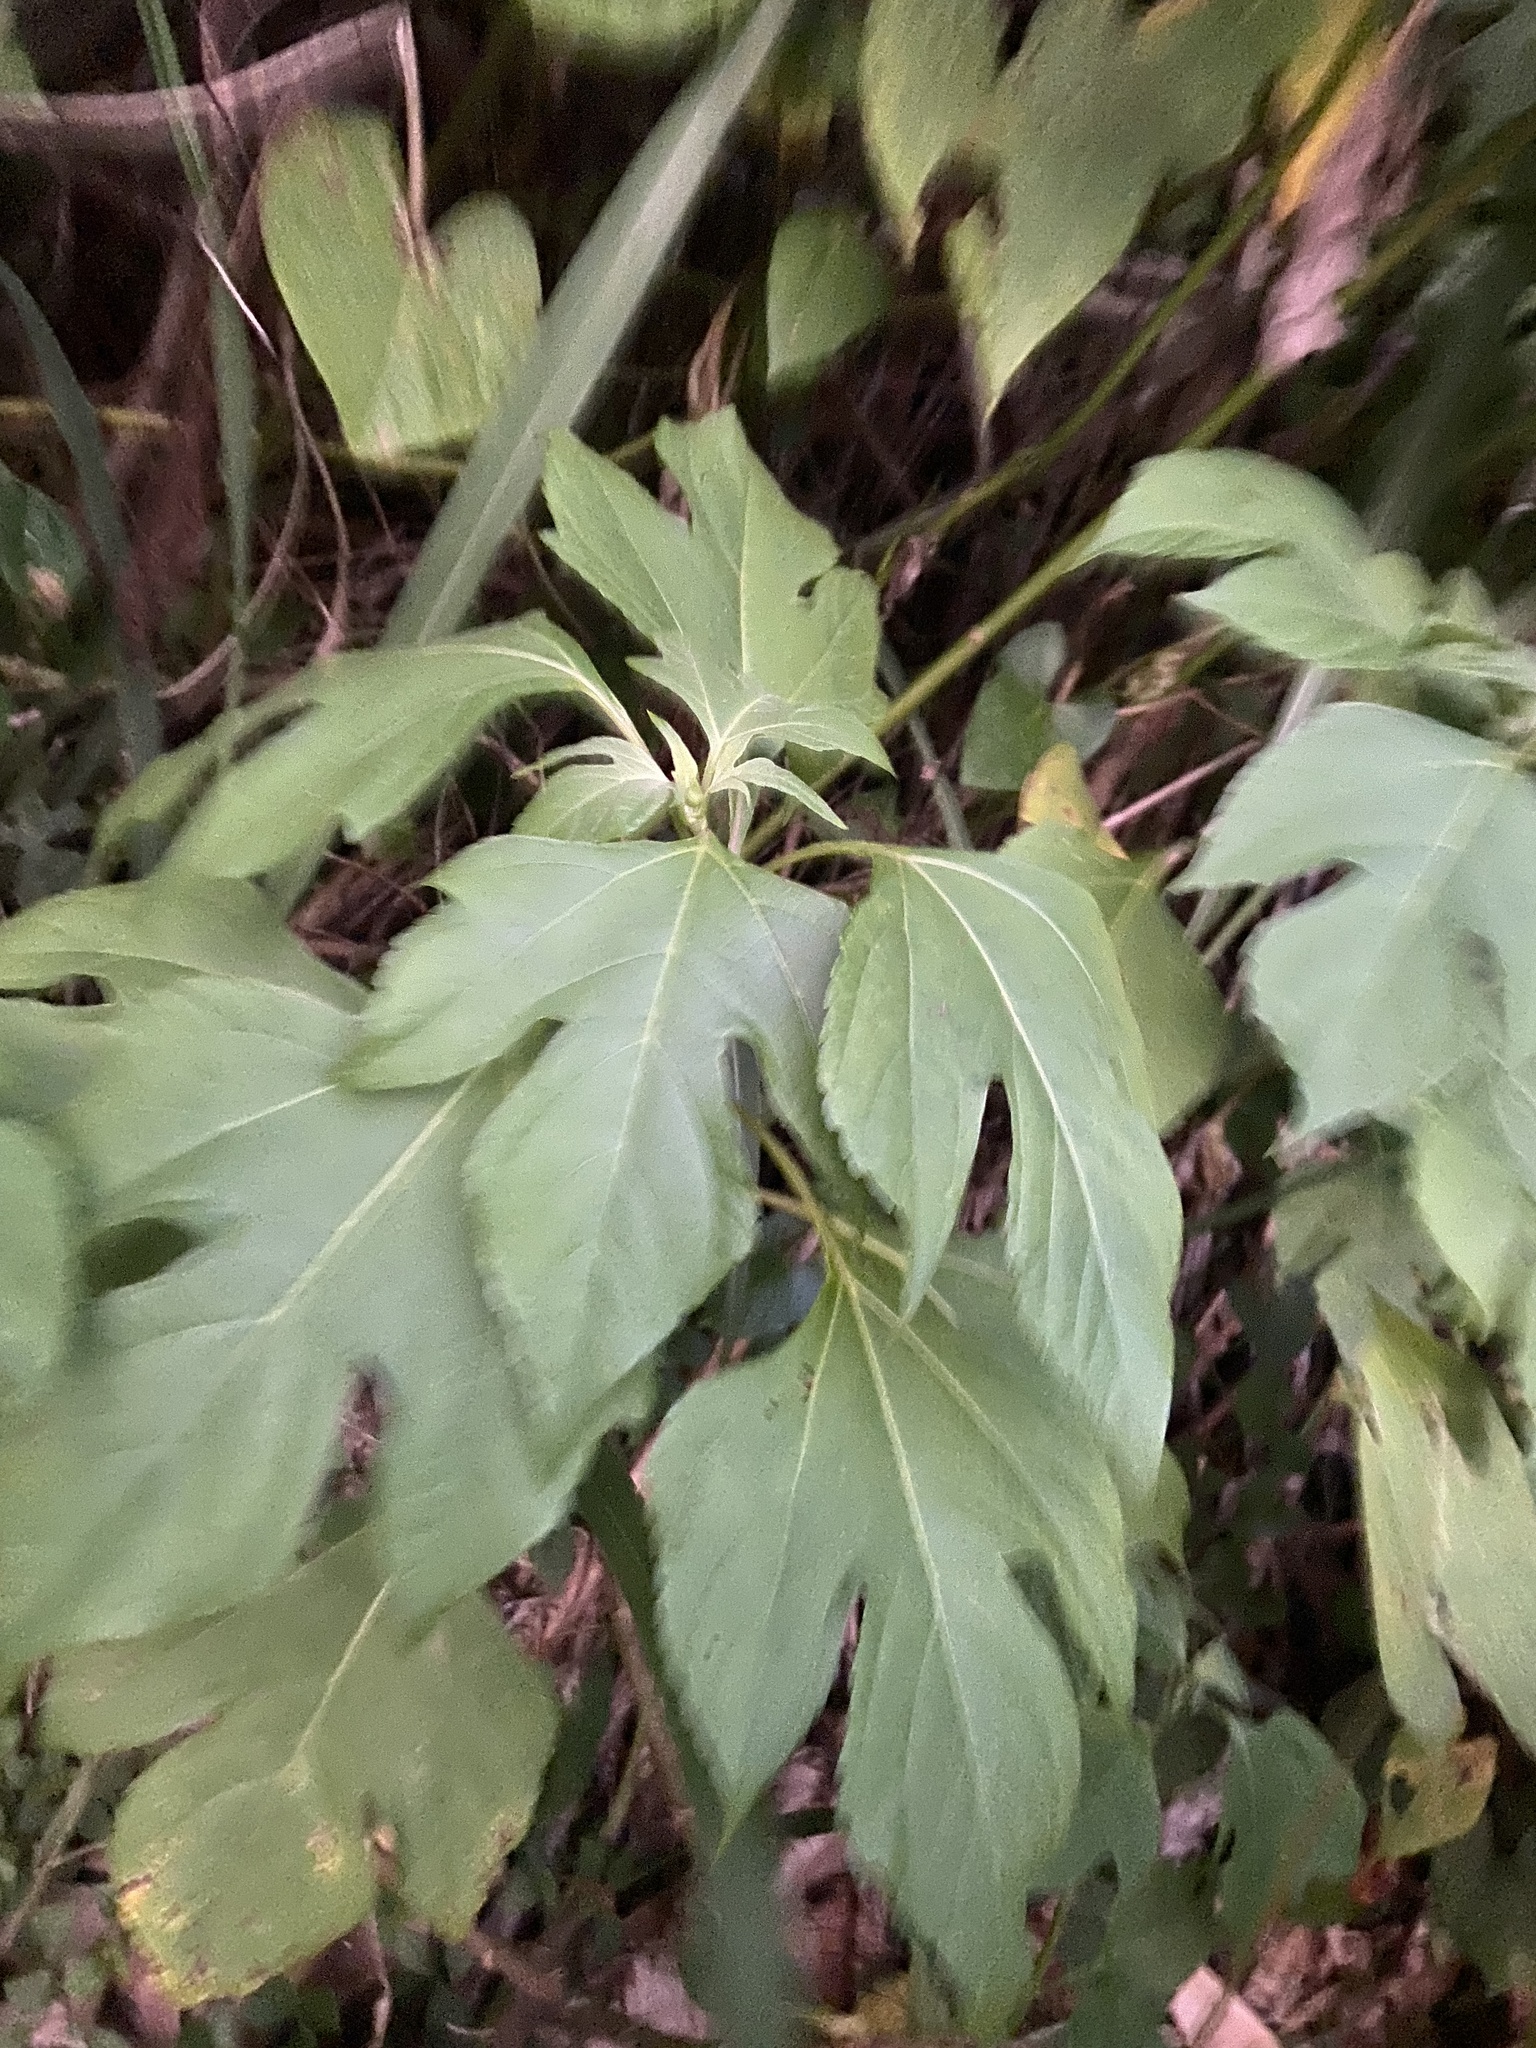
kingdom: Plantae
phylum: Tracheophyta
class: Magnoliopsida
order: Asterales
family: Asteraceae
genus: Tithonia
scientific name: Tithonia diversifolia
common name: Tree marigold
